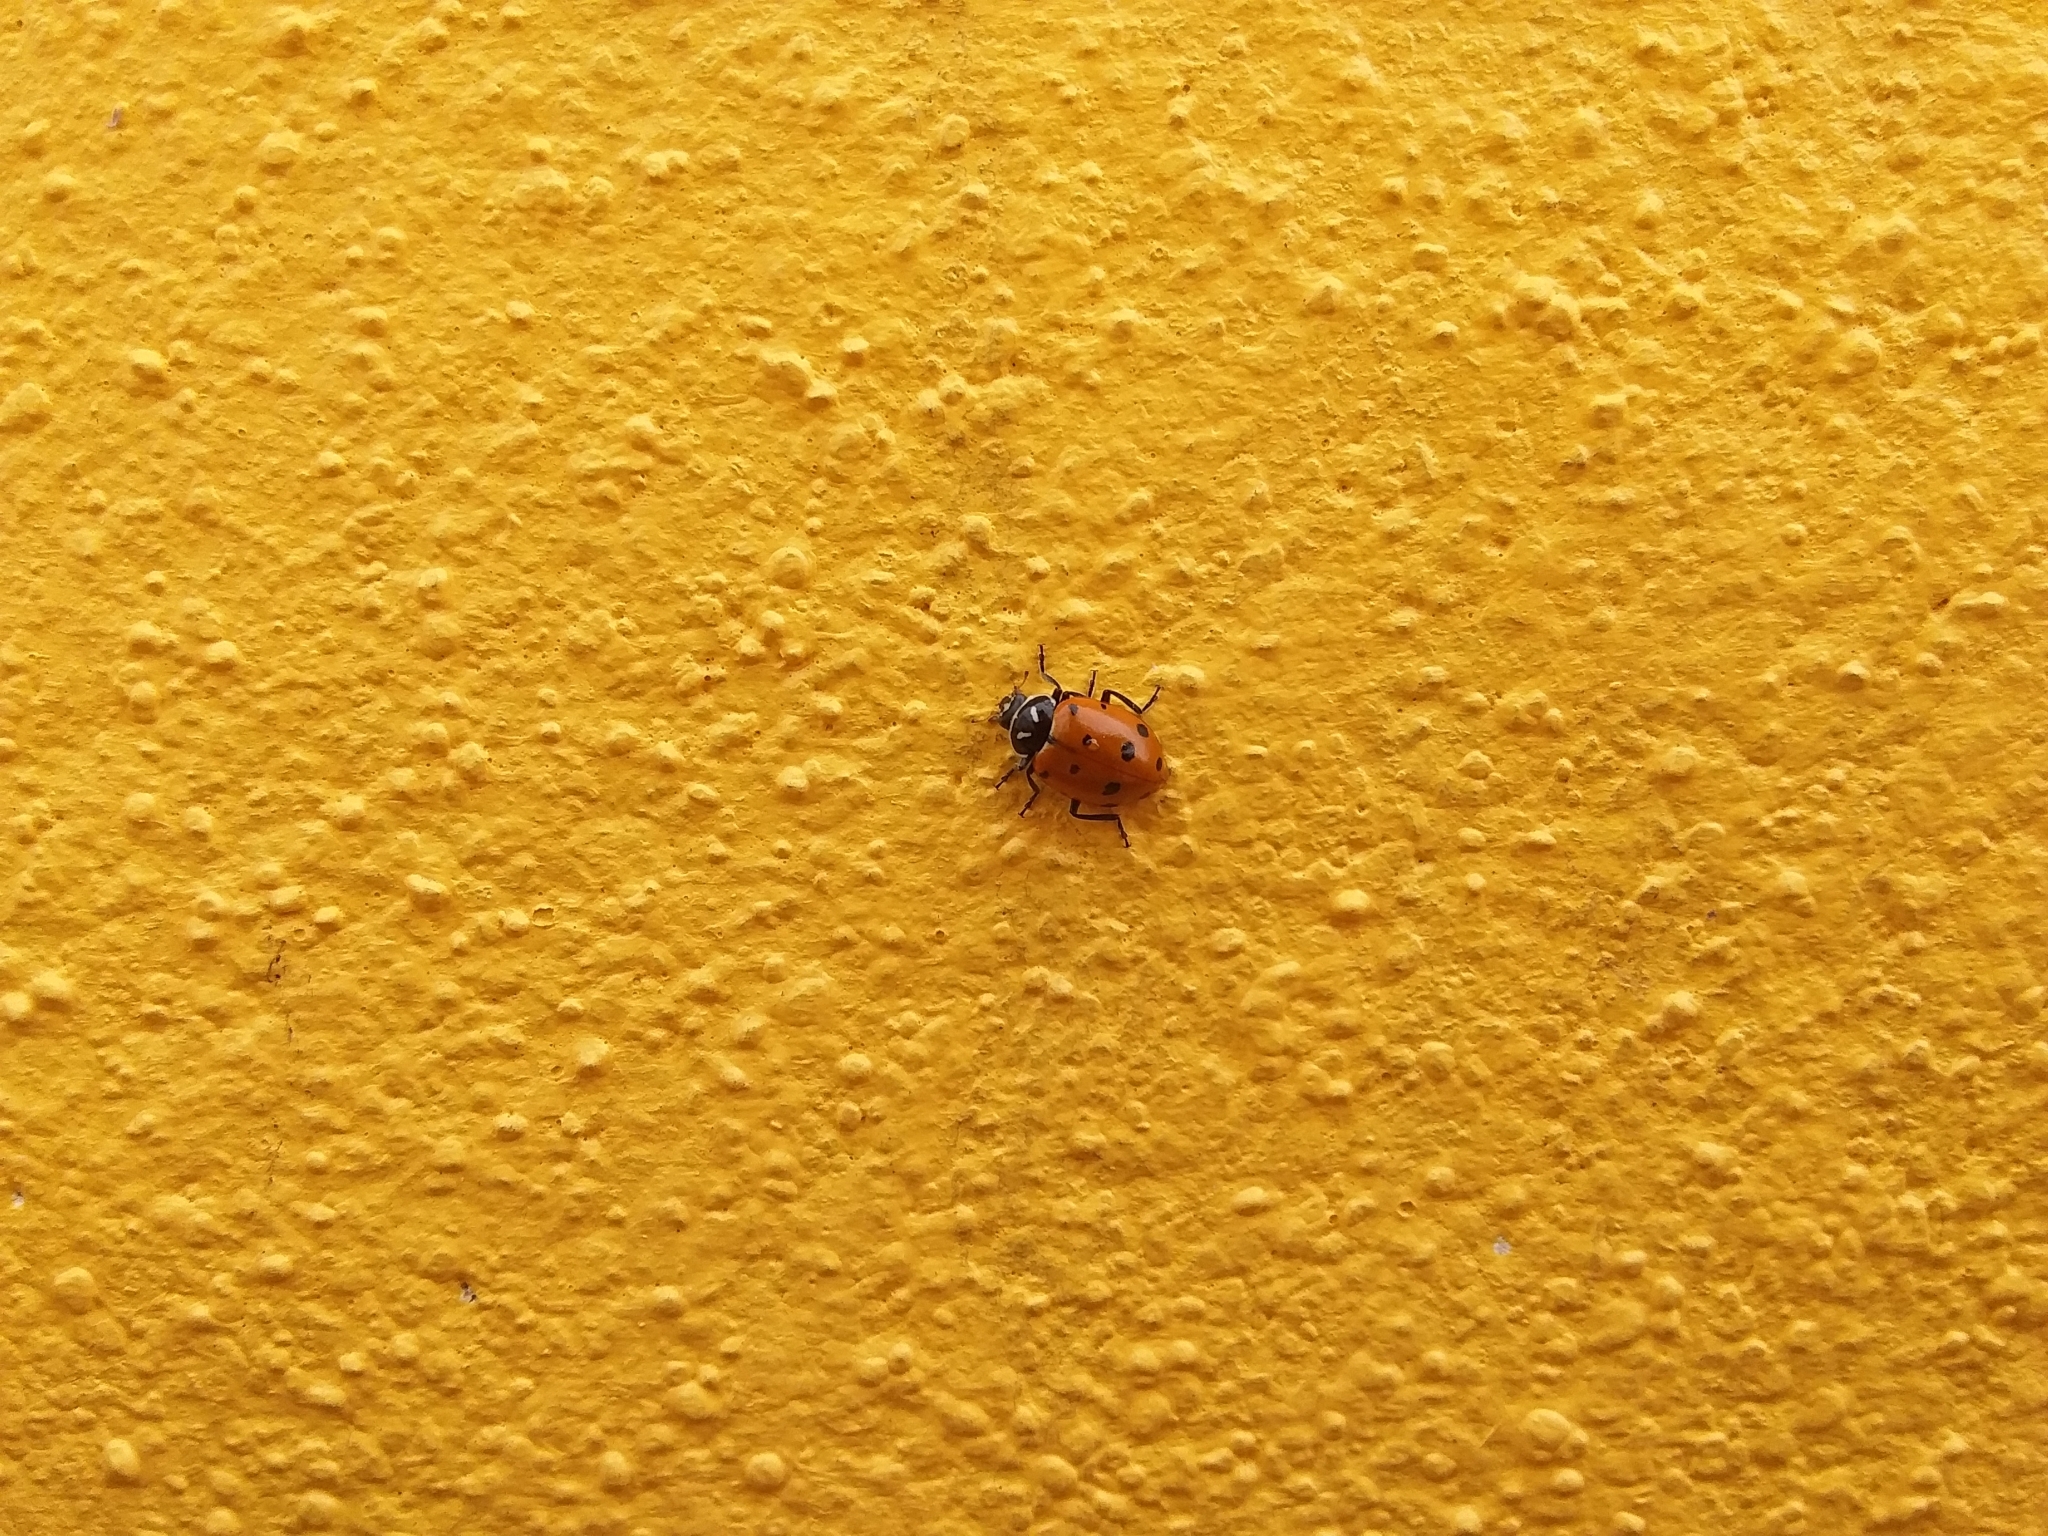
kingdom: Animalia
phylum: Arthropoda
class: Insecta
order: Coleoptera
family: Coccinellidae
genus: Hippodamia
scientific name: Hippodamia convergens
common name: Convergent lady beetle
